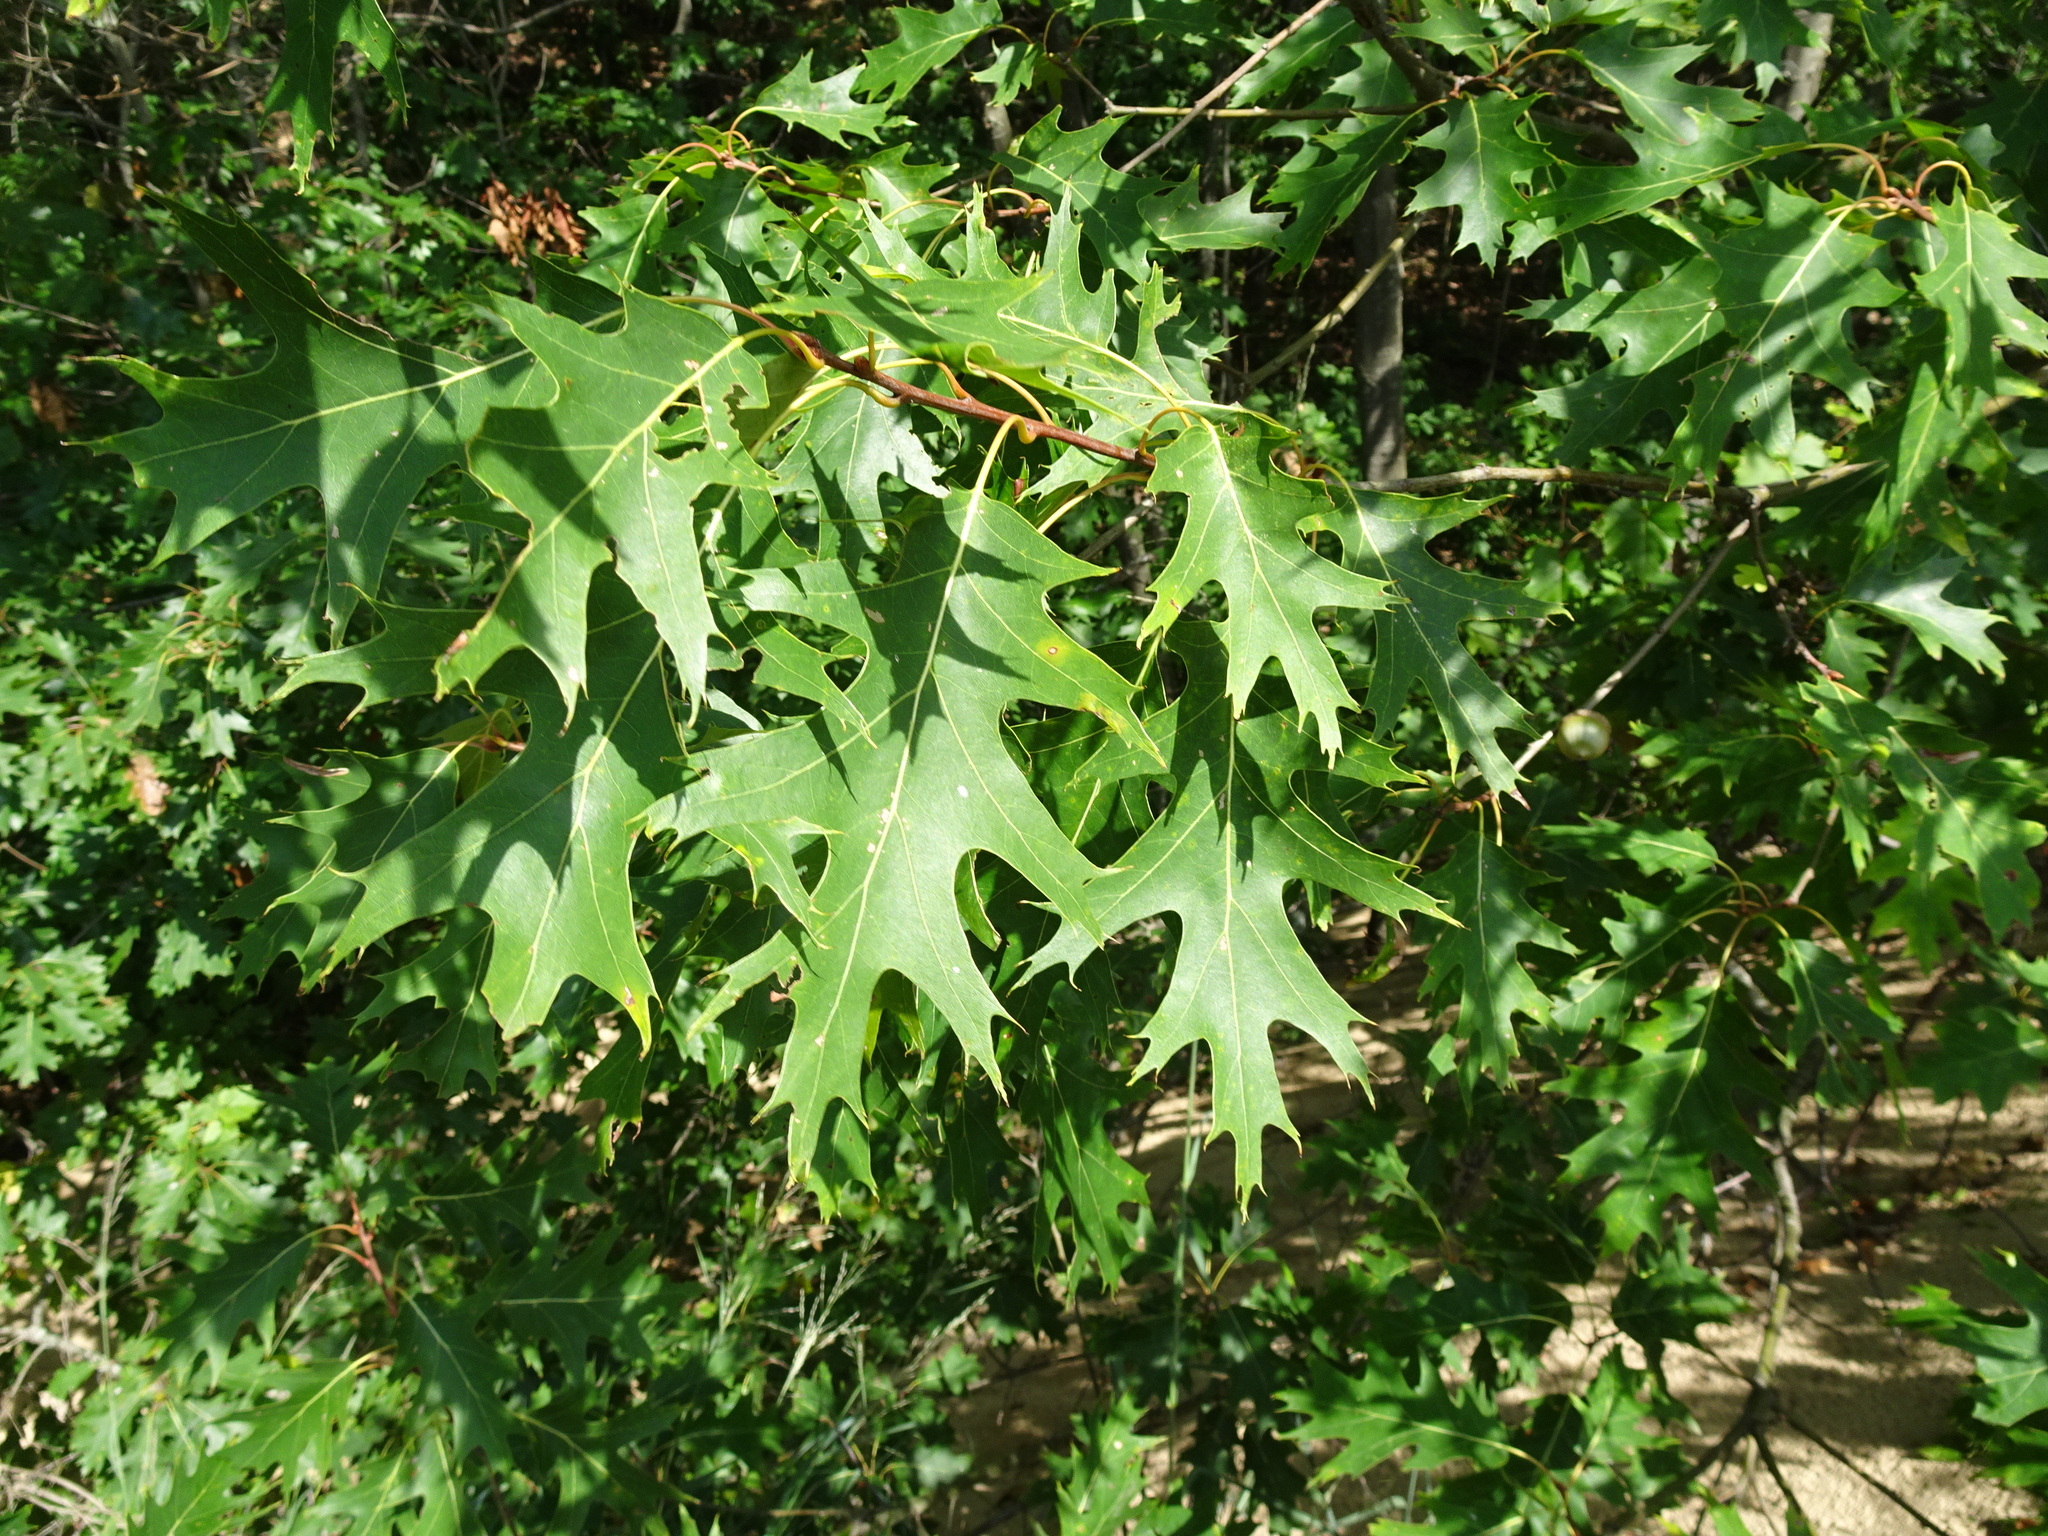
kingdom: Plantae
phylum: Tracheophyta
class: Magnoliopsida
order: Fagales
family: Fagaceae
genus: Quercus
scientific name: Quercus rubra
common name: Red oak
